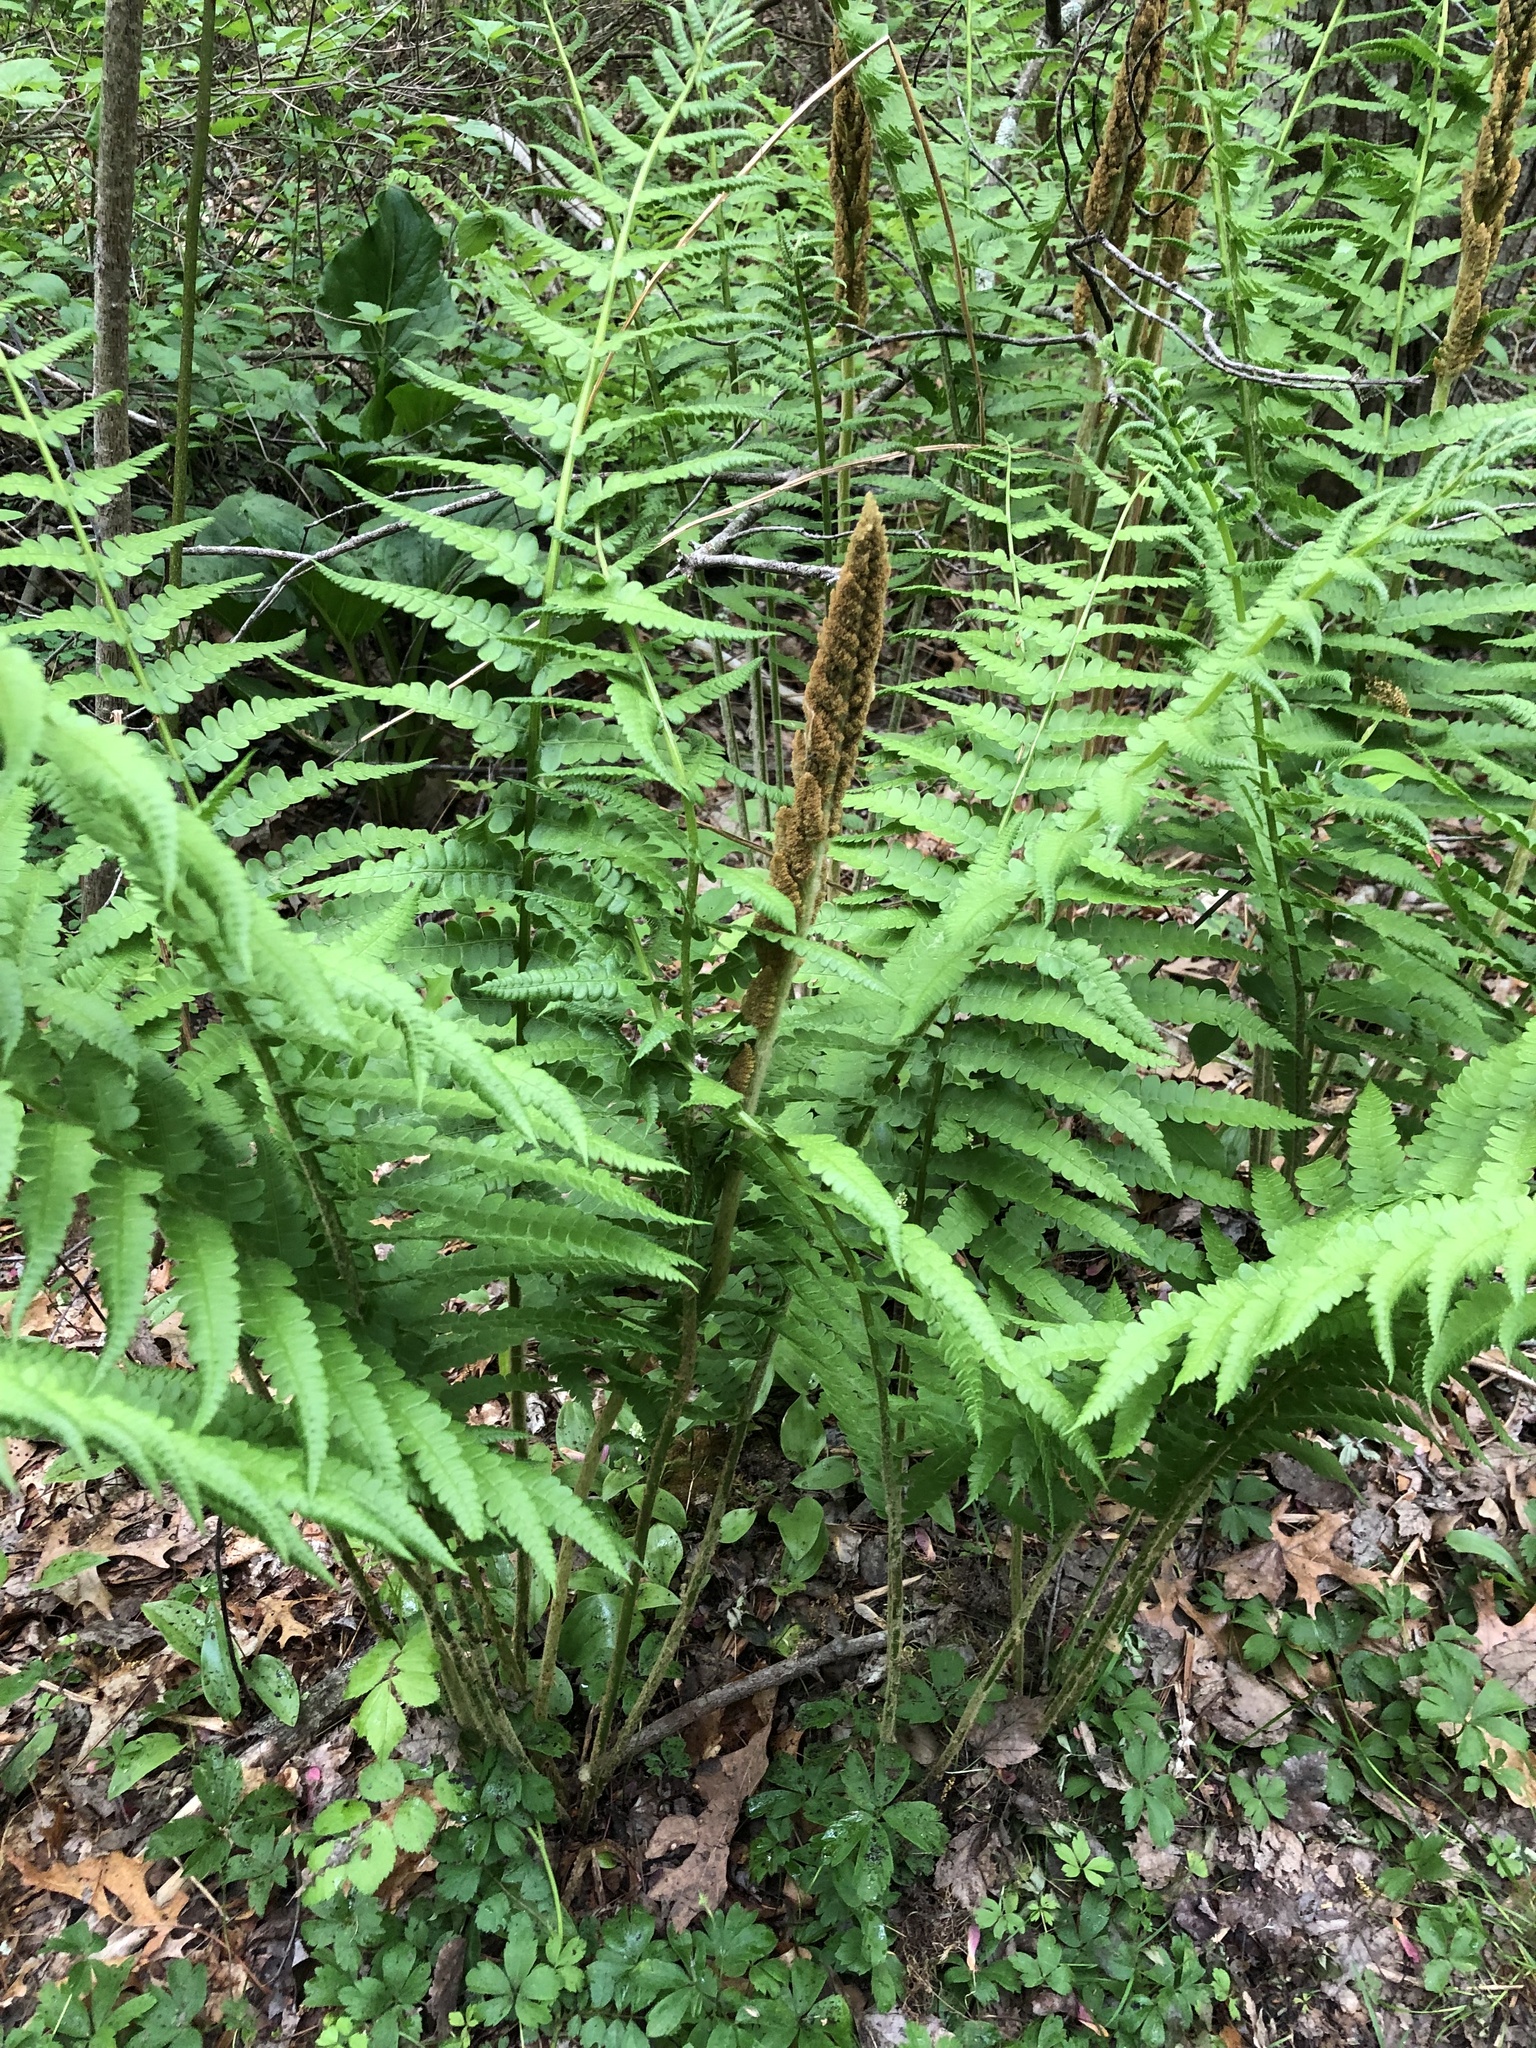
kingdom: Plantae
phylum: Tracheophyta
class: Polypodiopsida
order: Osmundales
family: Osmundaceae
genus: Osmundastrum
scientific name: Osmundastrum cinnamomeum
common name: Cinnamon fern
